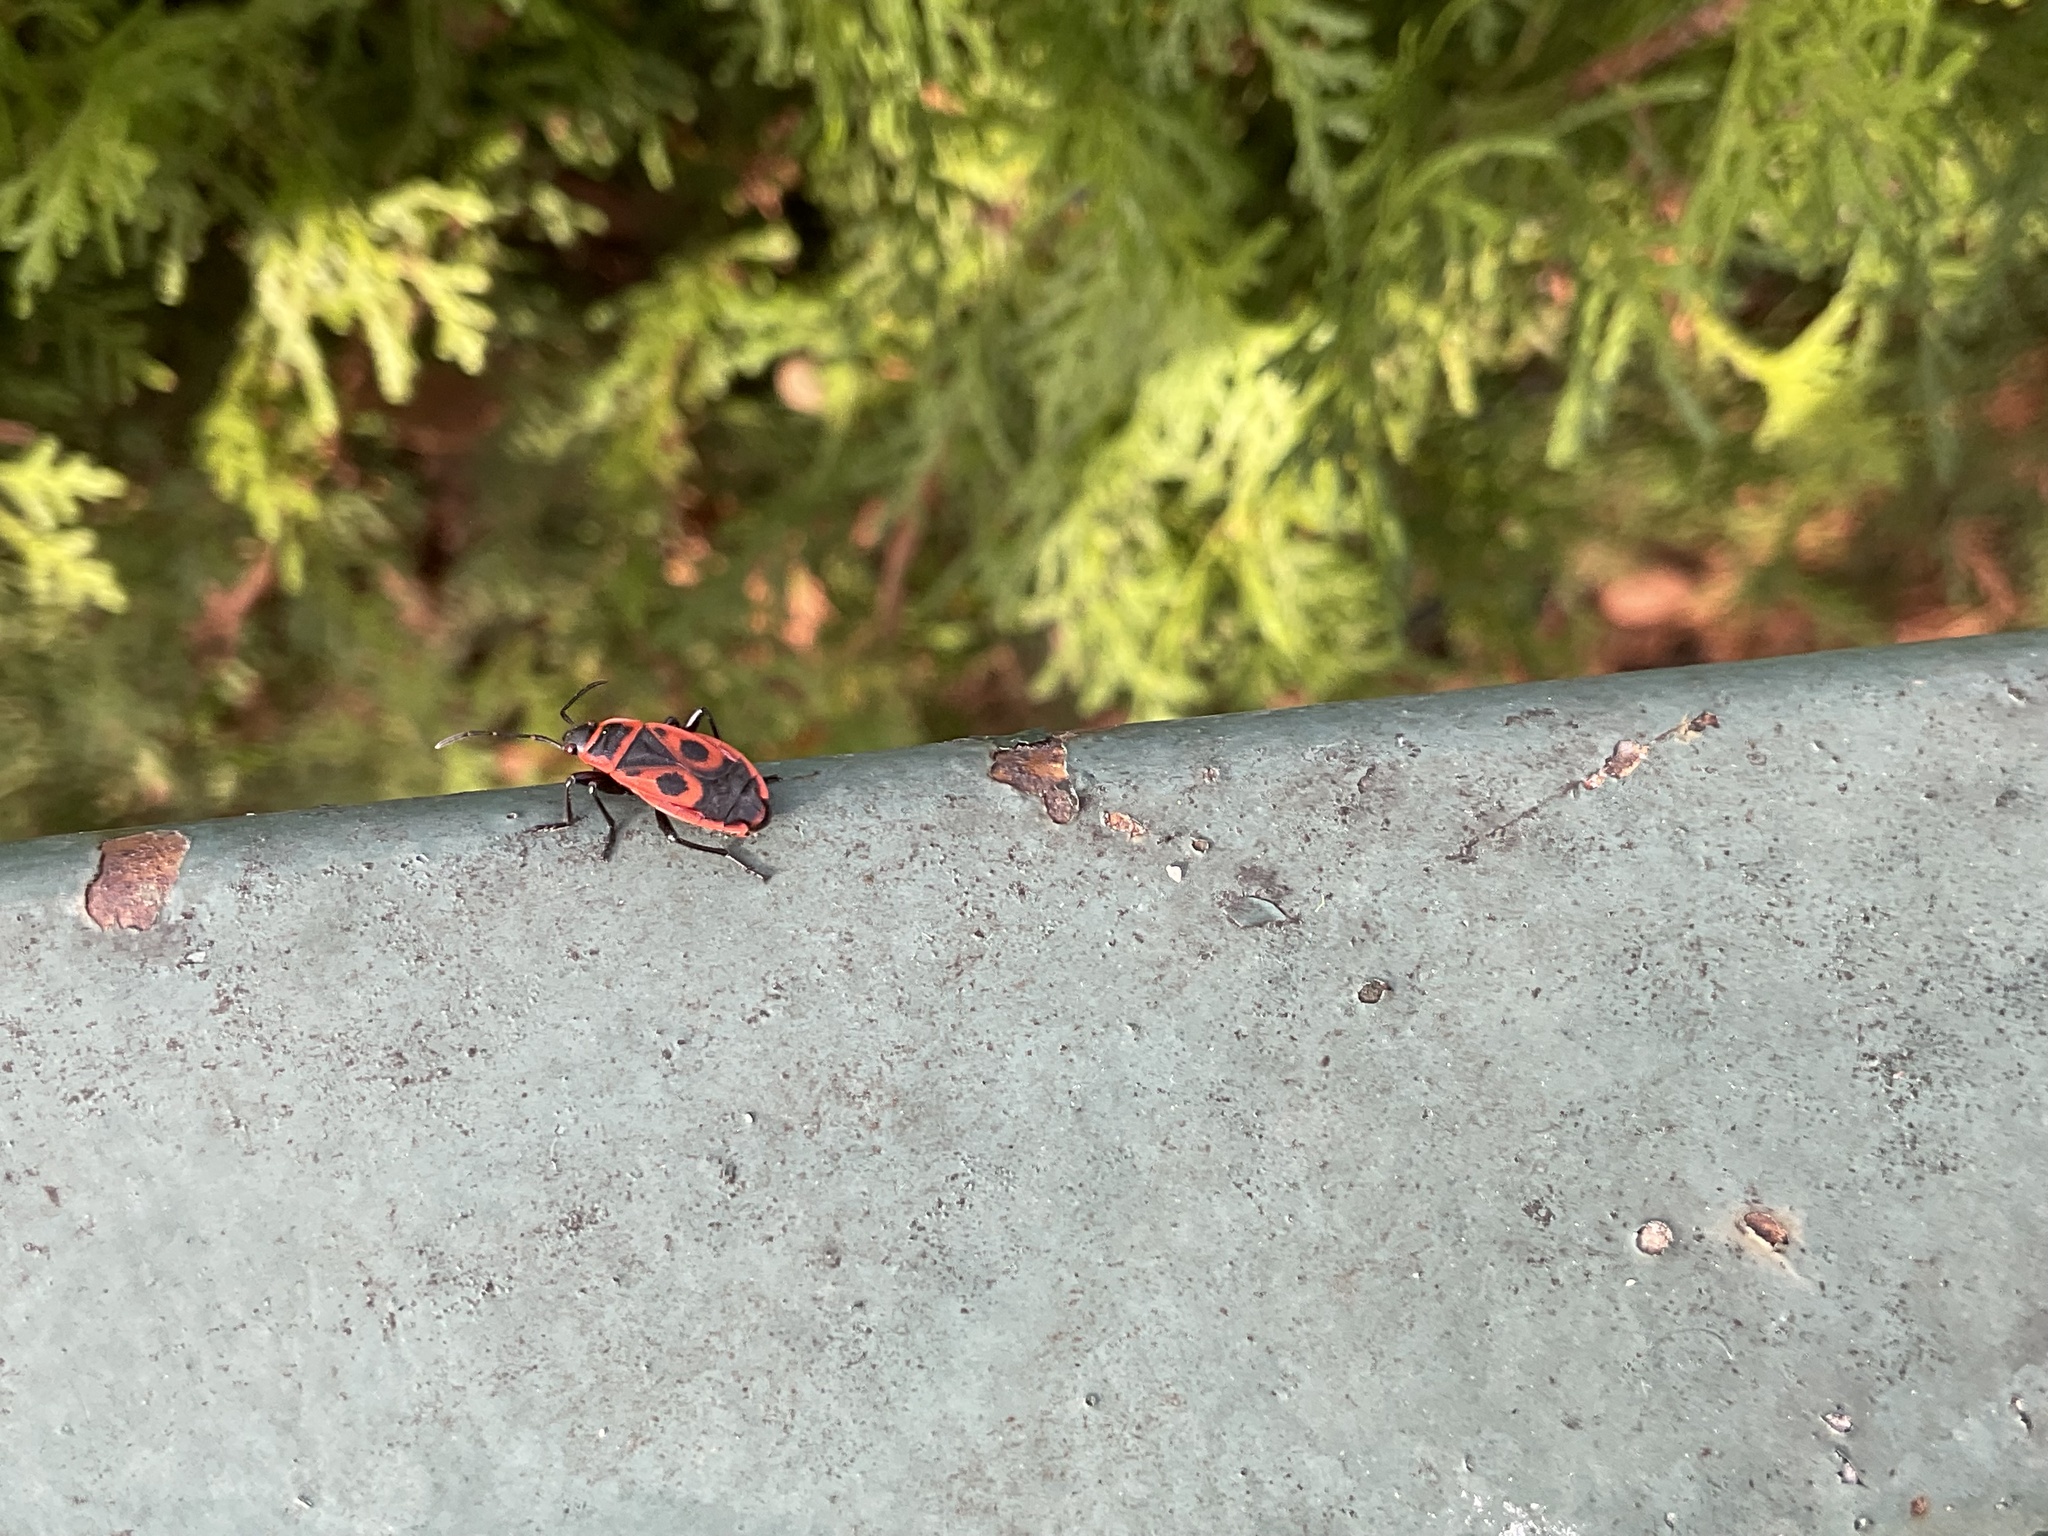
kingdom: Animalia
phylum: Arthropoda
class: Insecta
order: Hemiptera
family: Pyrrhocoridae
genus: Pyrrhocoris
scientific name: Pyrrhocoris apterus
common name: Firebug
